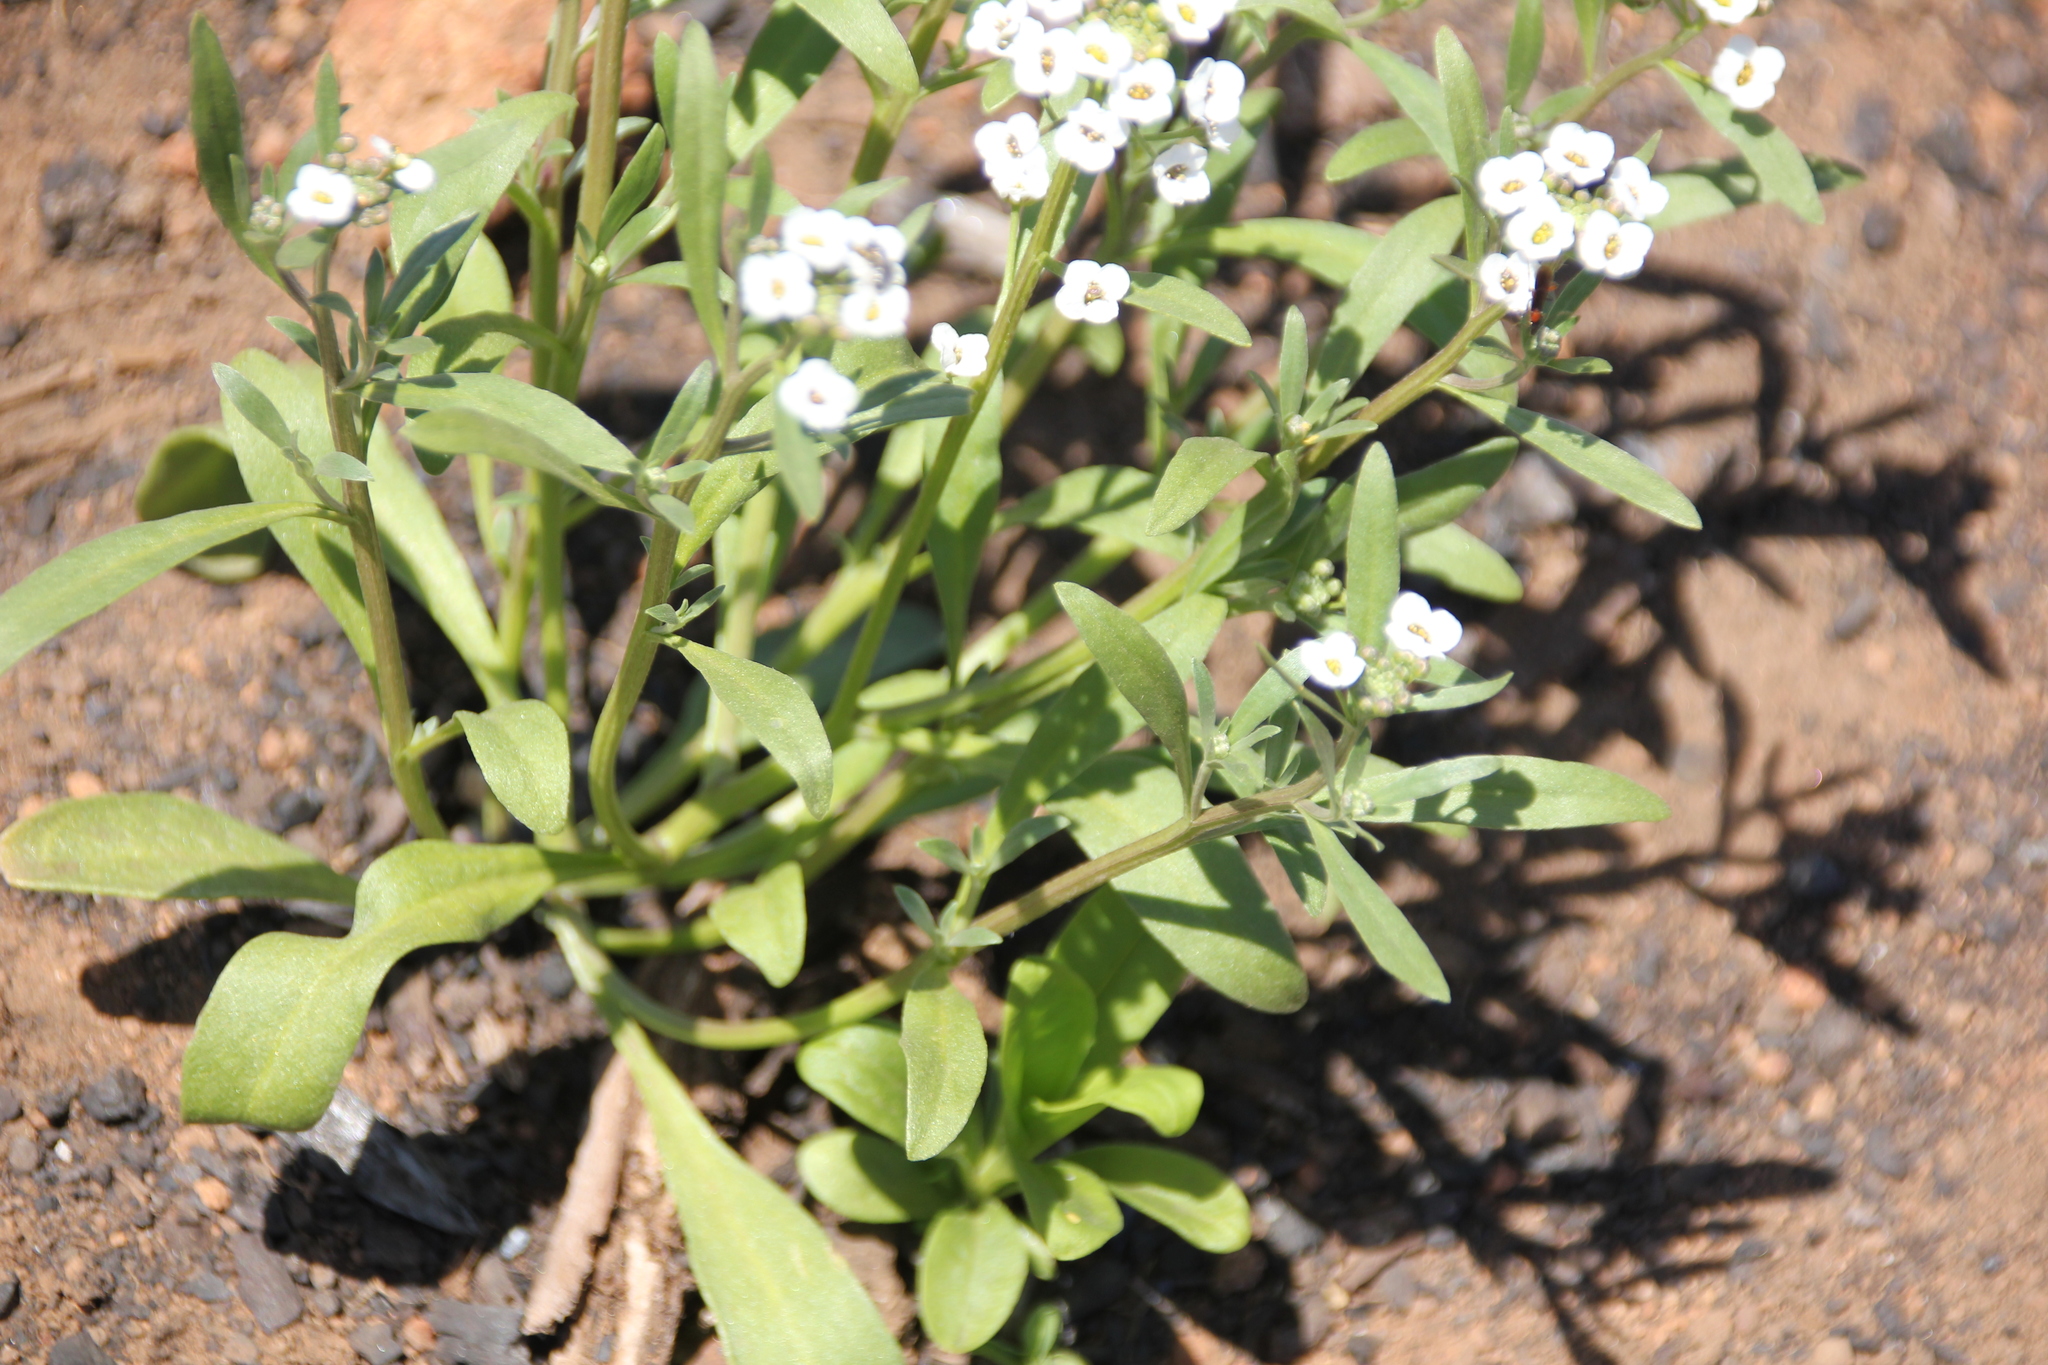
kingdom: Plantae
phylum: Tracheophyta
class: Magnoliopsida
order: Brassicales
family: Brassicaceae
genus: Lobularia
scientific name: Lobularia maritima
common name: Sweet alison
